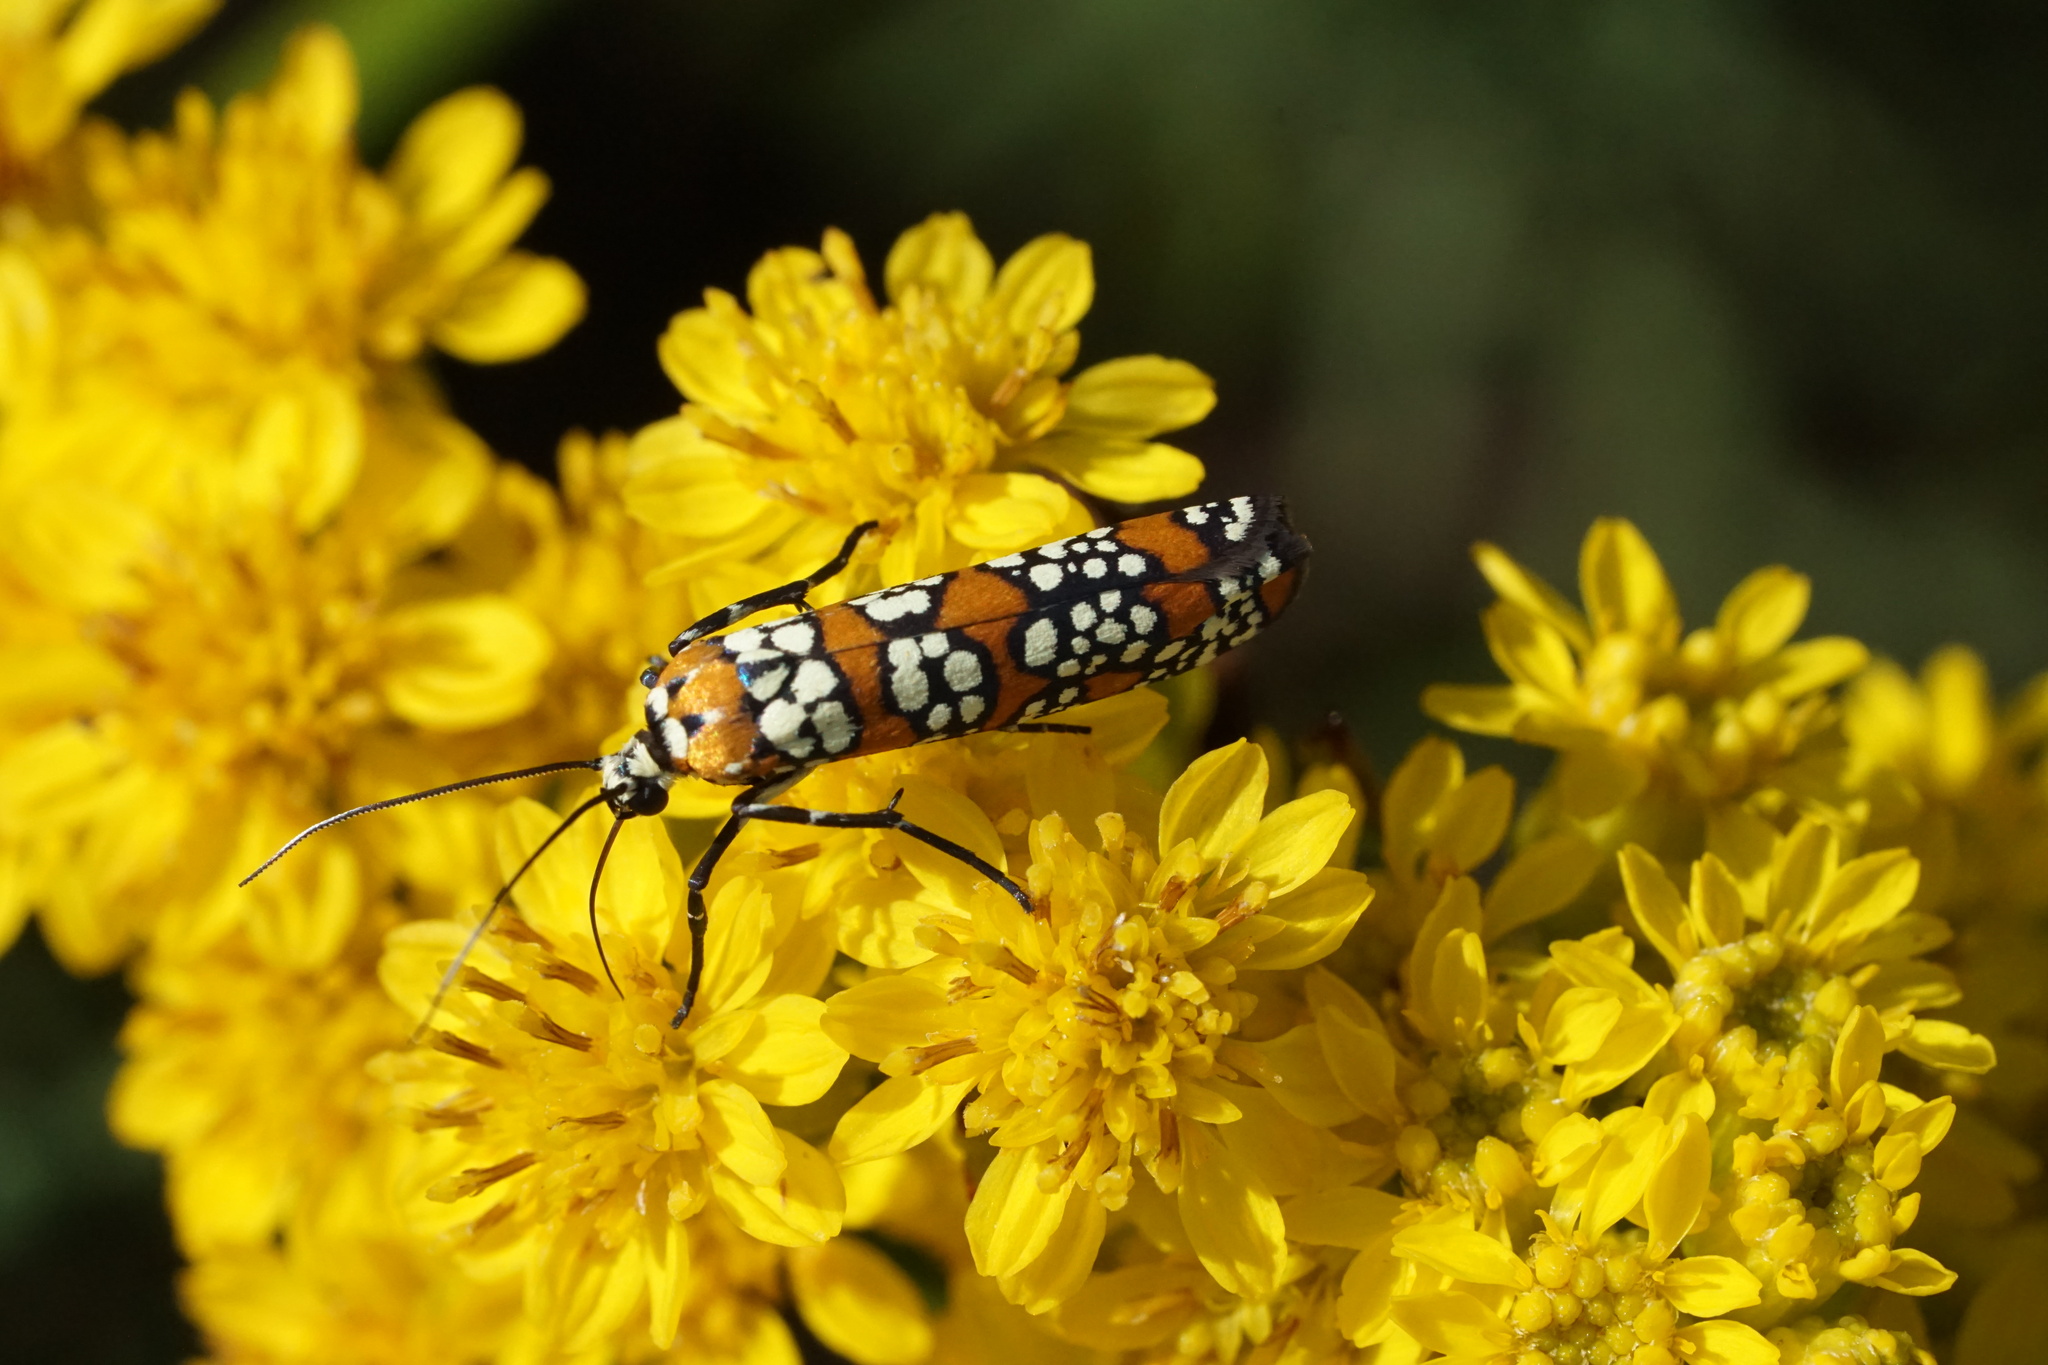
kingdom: Animalia
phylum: Arthropoda
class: Insecta
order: Lepidoptera
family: Attevidae
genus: Atteva
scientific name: Atteva punctella
